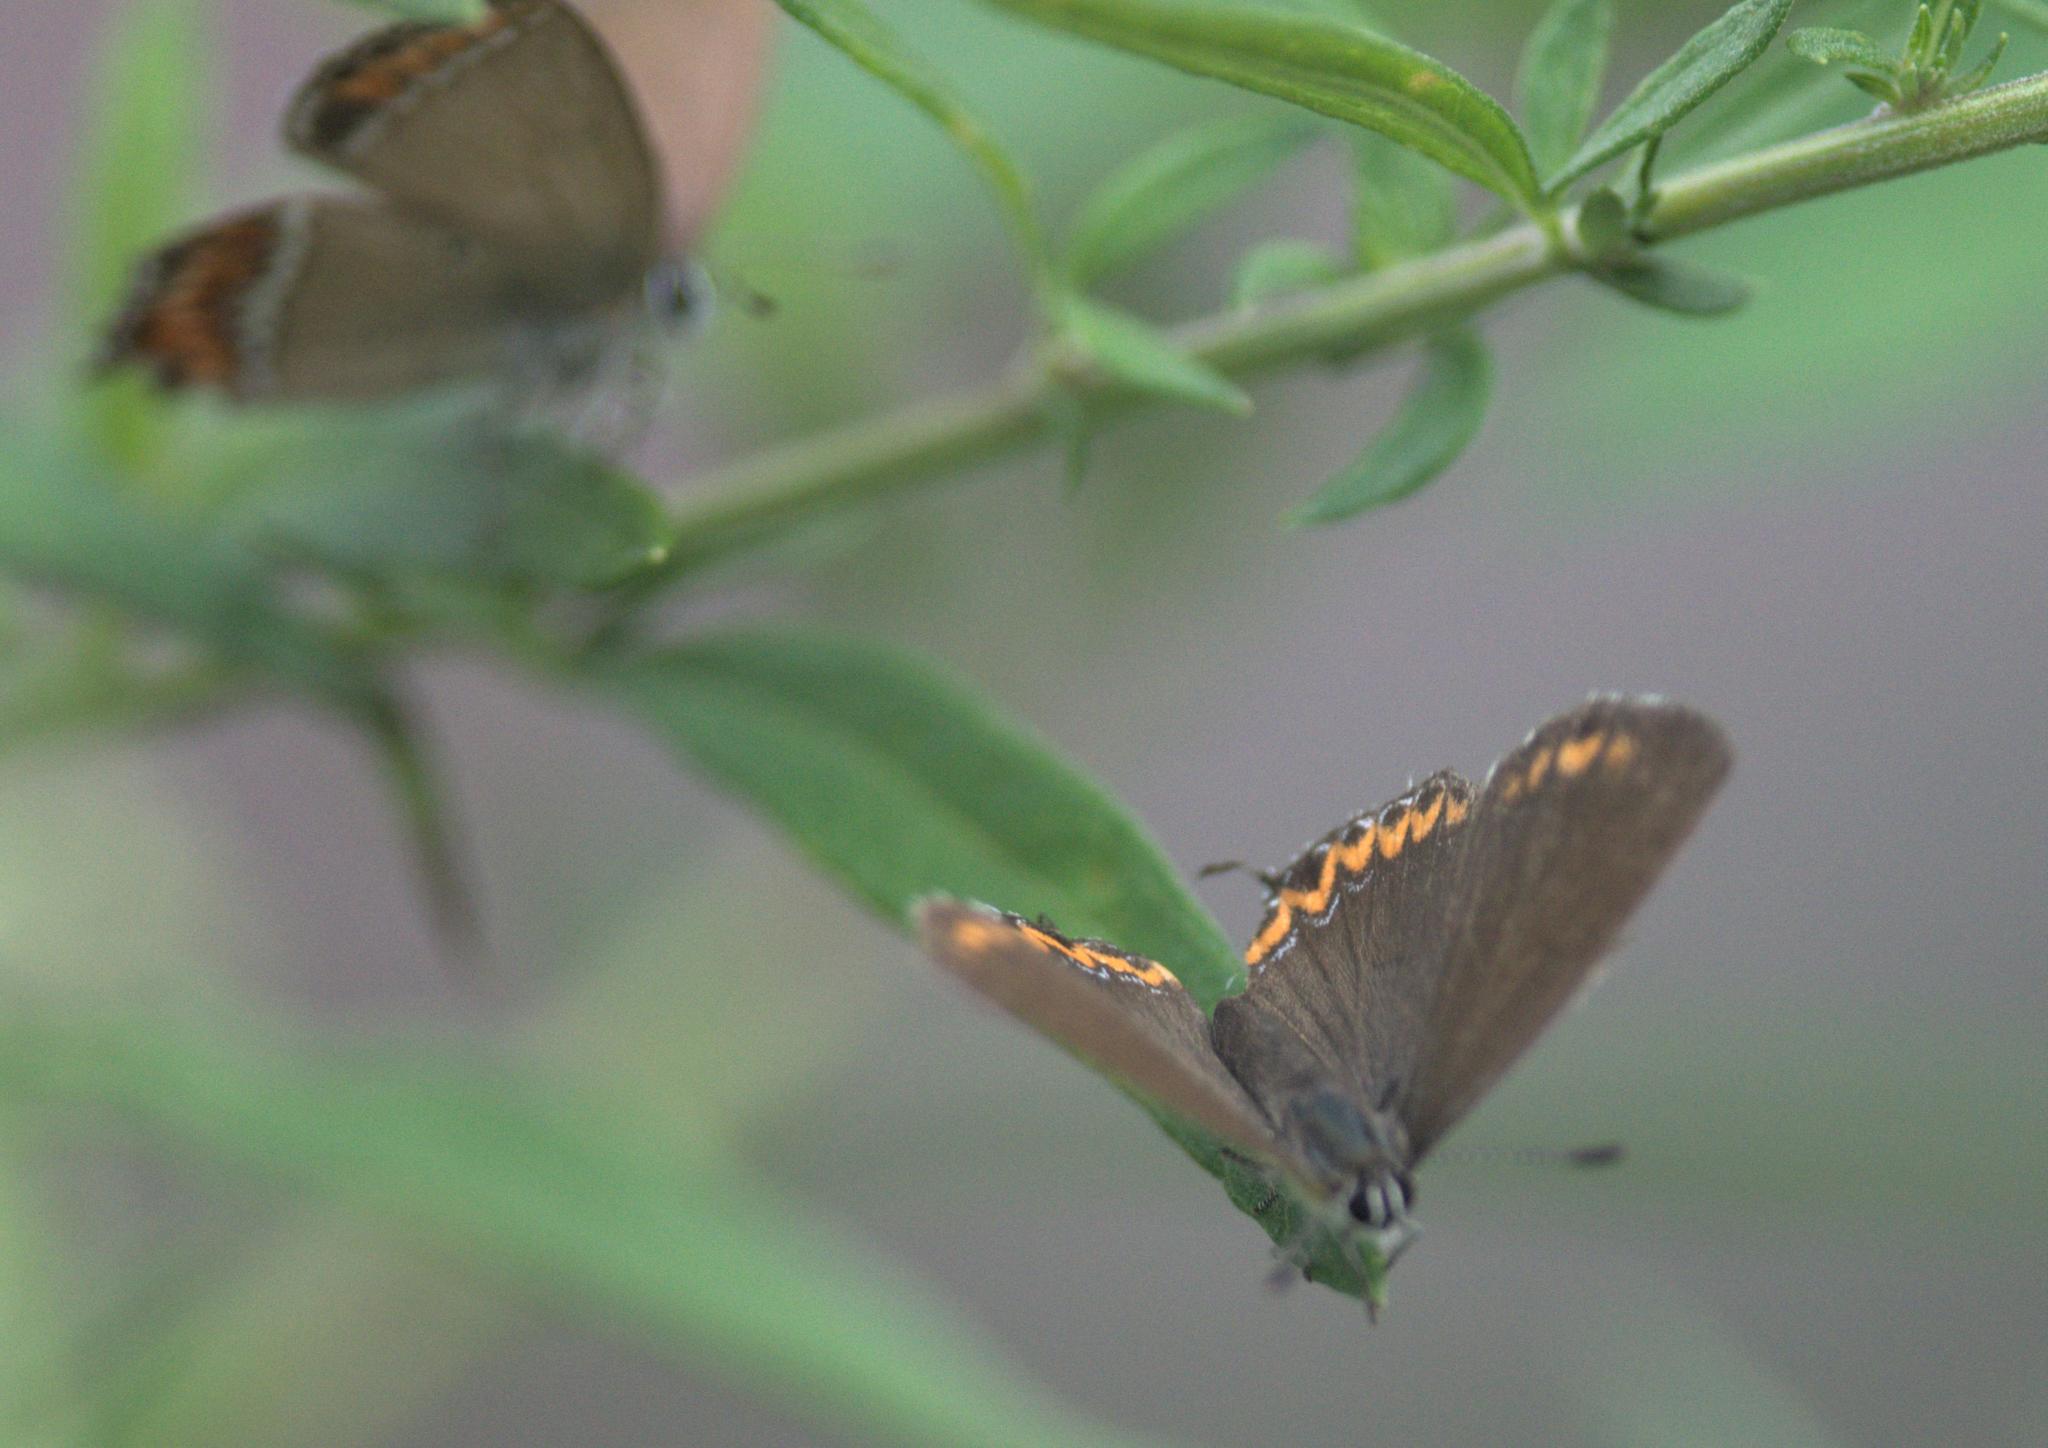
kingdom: Animalia
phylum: Arthropoda
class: Insecta
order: Lepidoptera
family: Lycaenidae
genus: Heliophorus
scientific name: Heliophorus sena
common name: Sorrel sapphire
